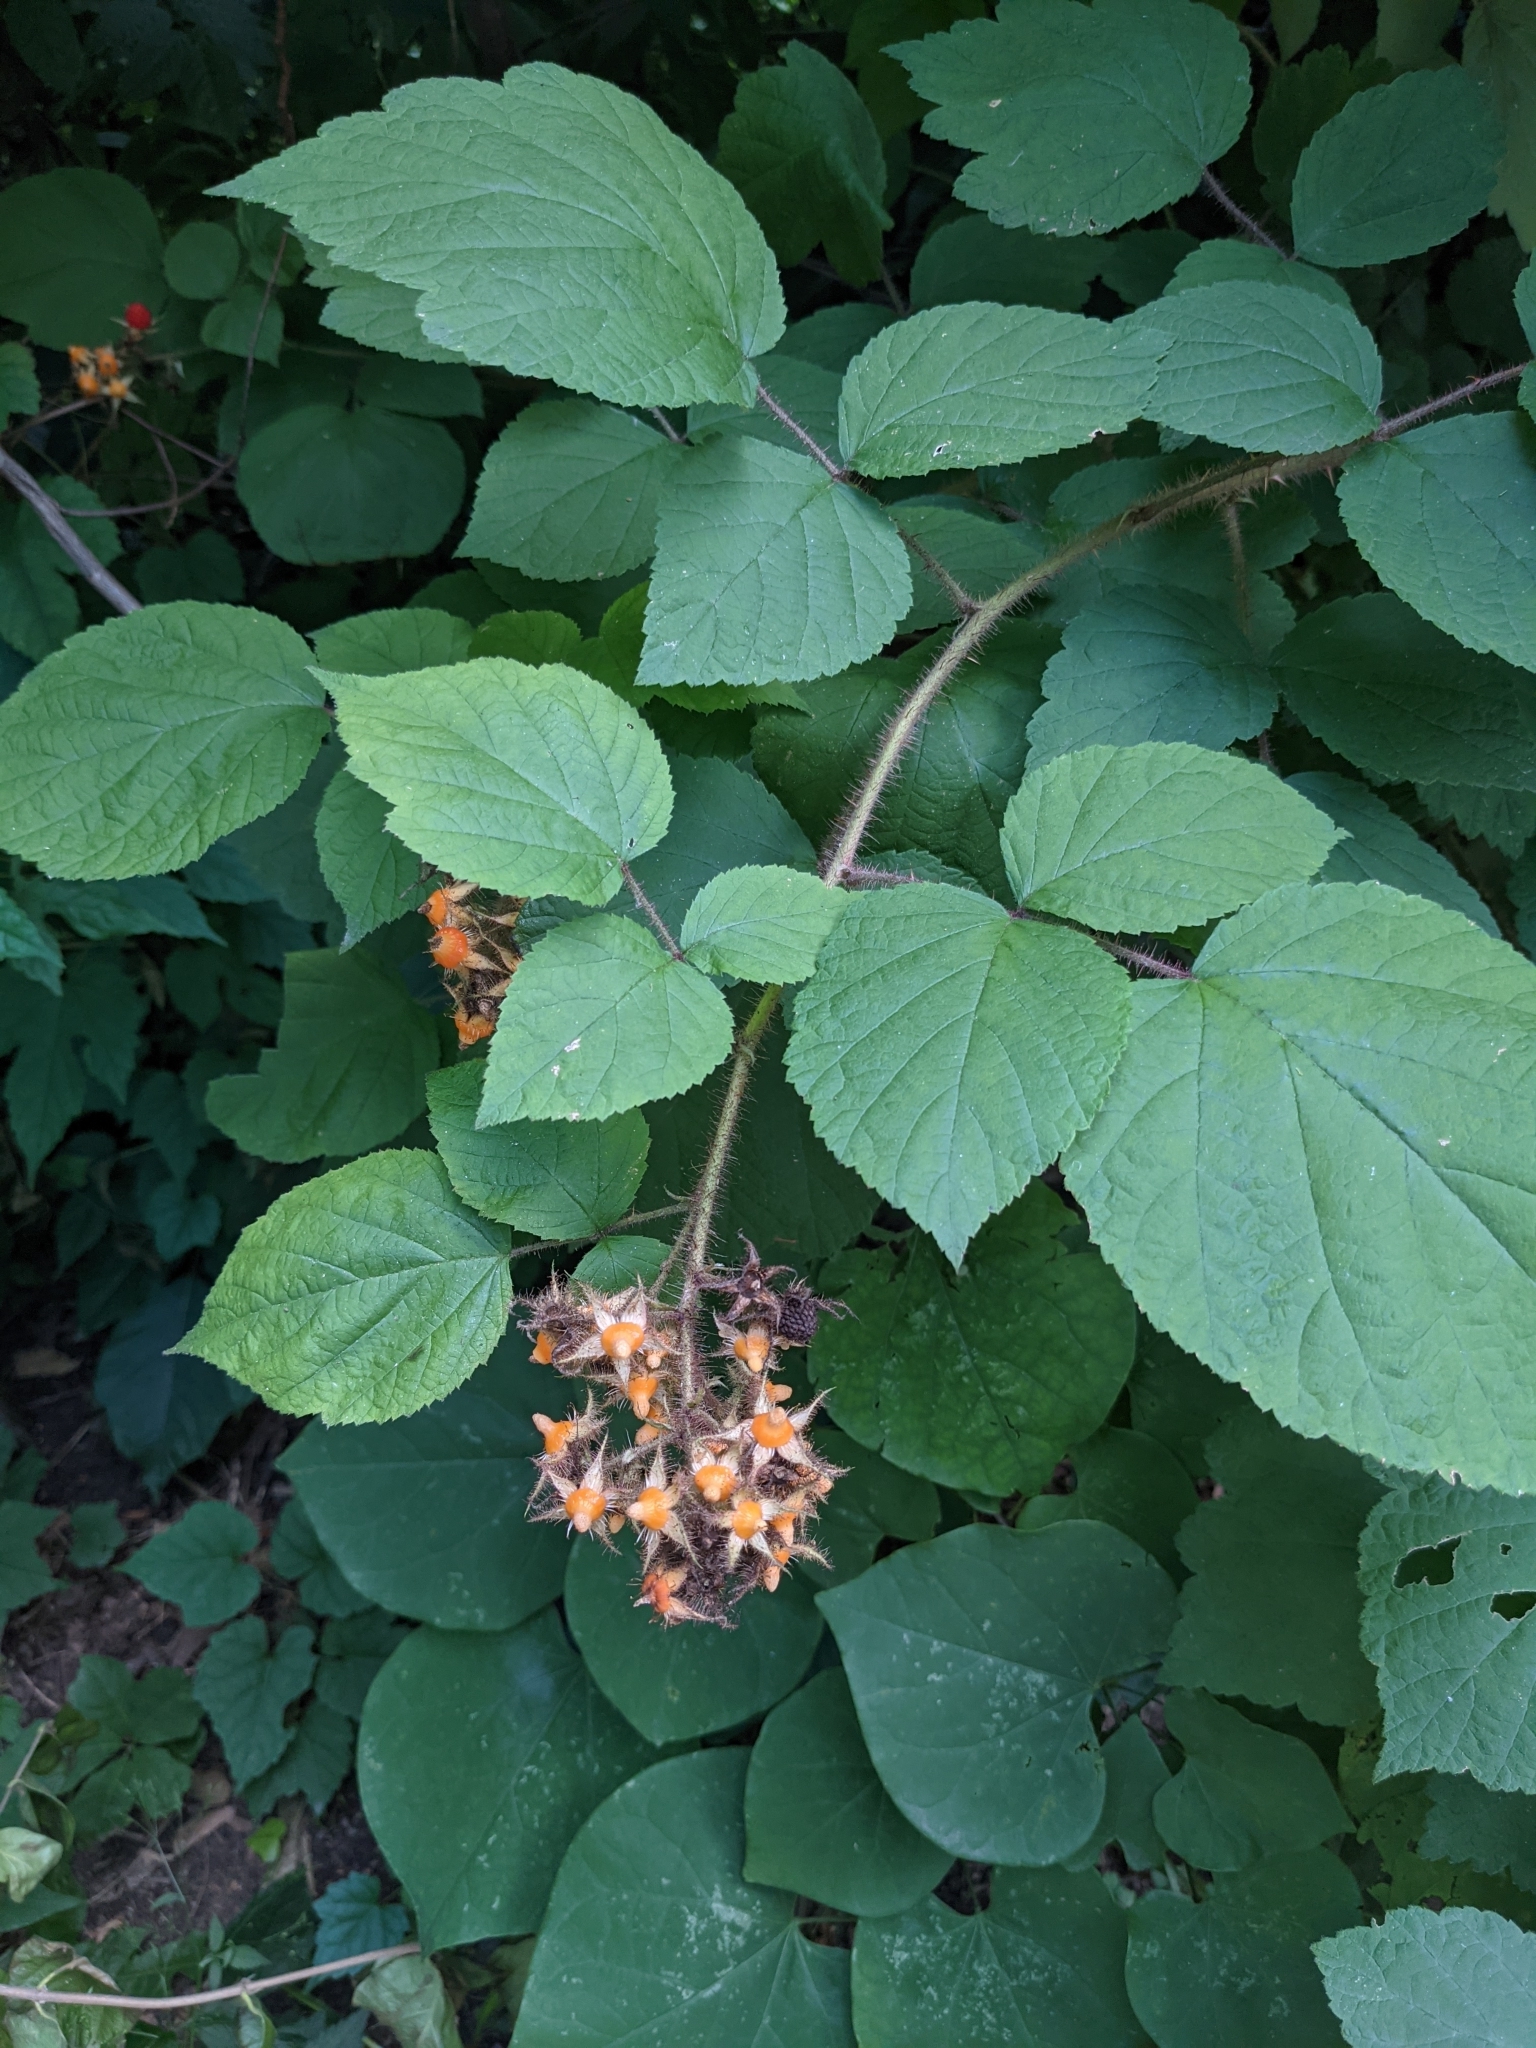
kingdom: Plantae
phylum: Tracheophyta
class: Magnoliopsida
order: Rosales
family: Rosaceae
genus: Rubus
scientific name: Rubus phoenicolasius
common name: Japanese wineberry
